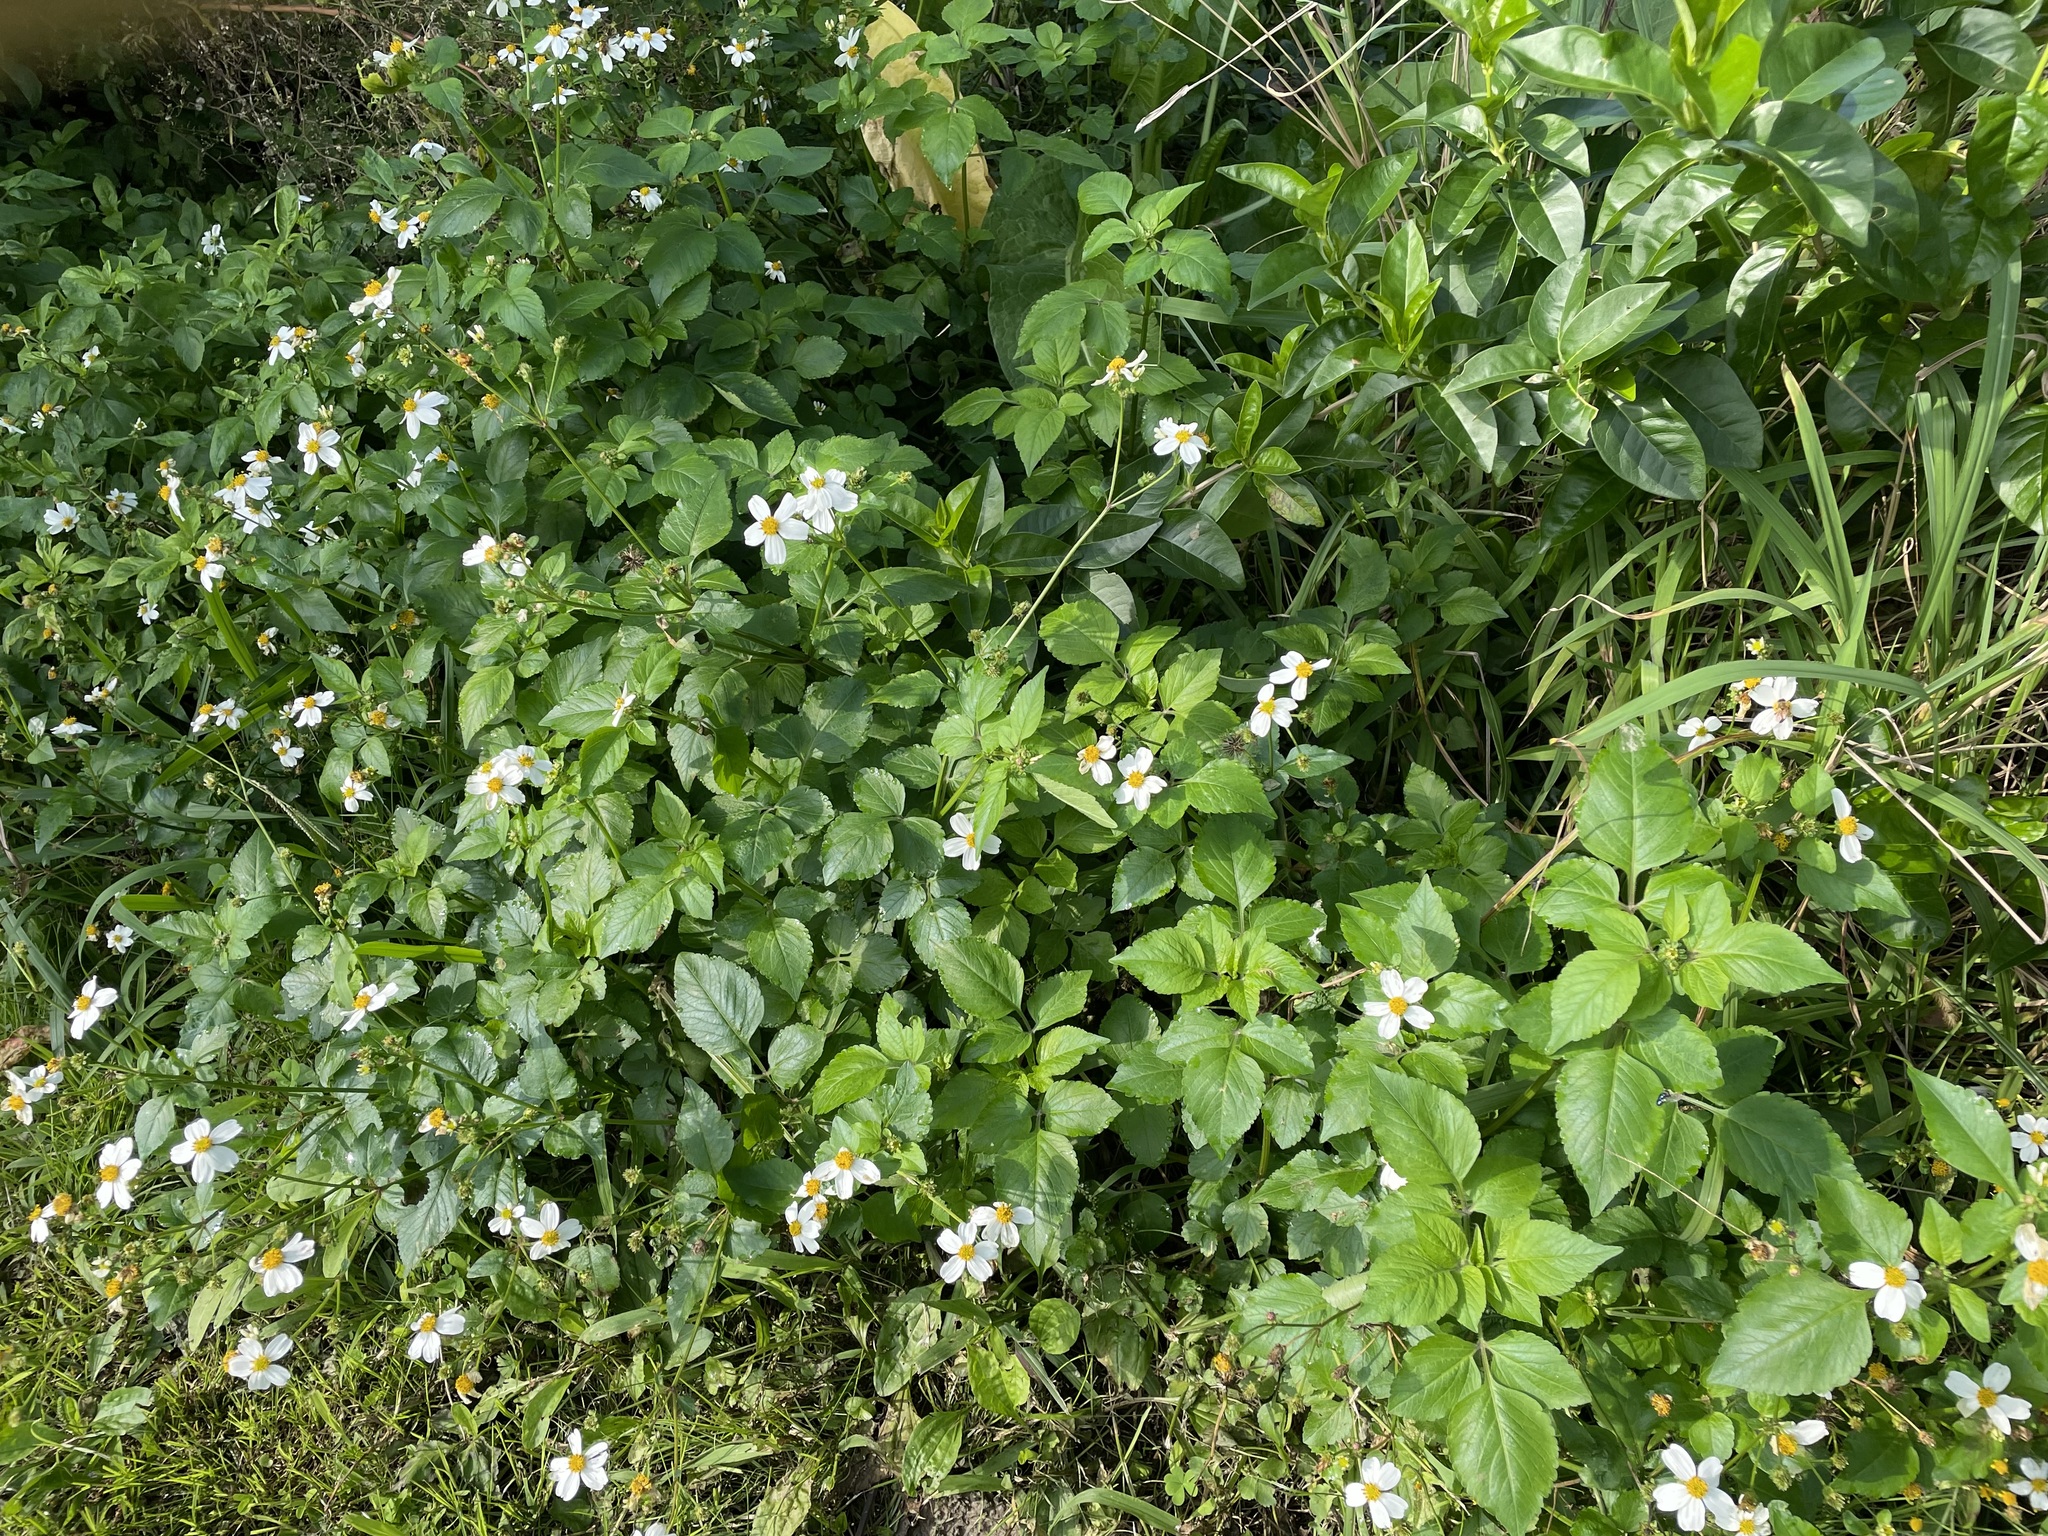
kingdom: Plantae
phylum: Tracheophyta
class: Magnoliopsida
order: Asterales
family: Asteraceae
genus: Bidens
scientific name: Bidens alba
